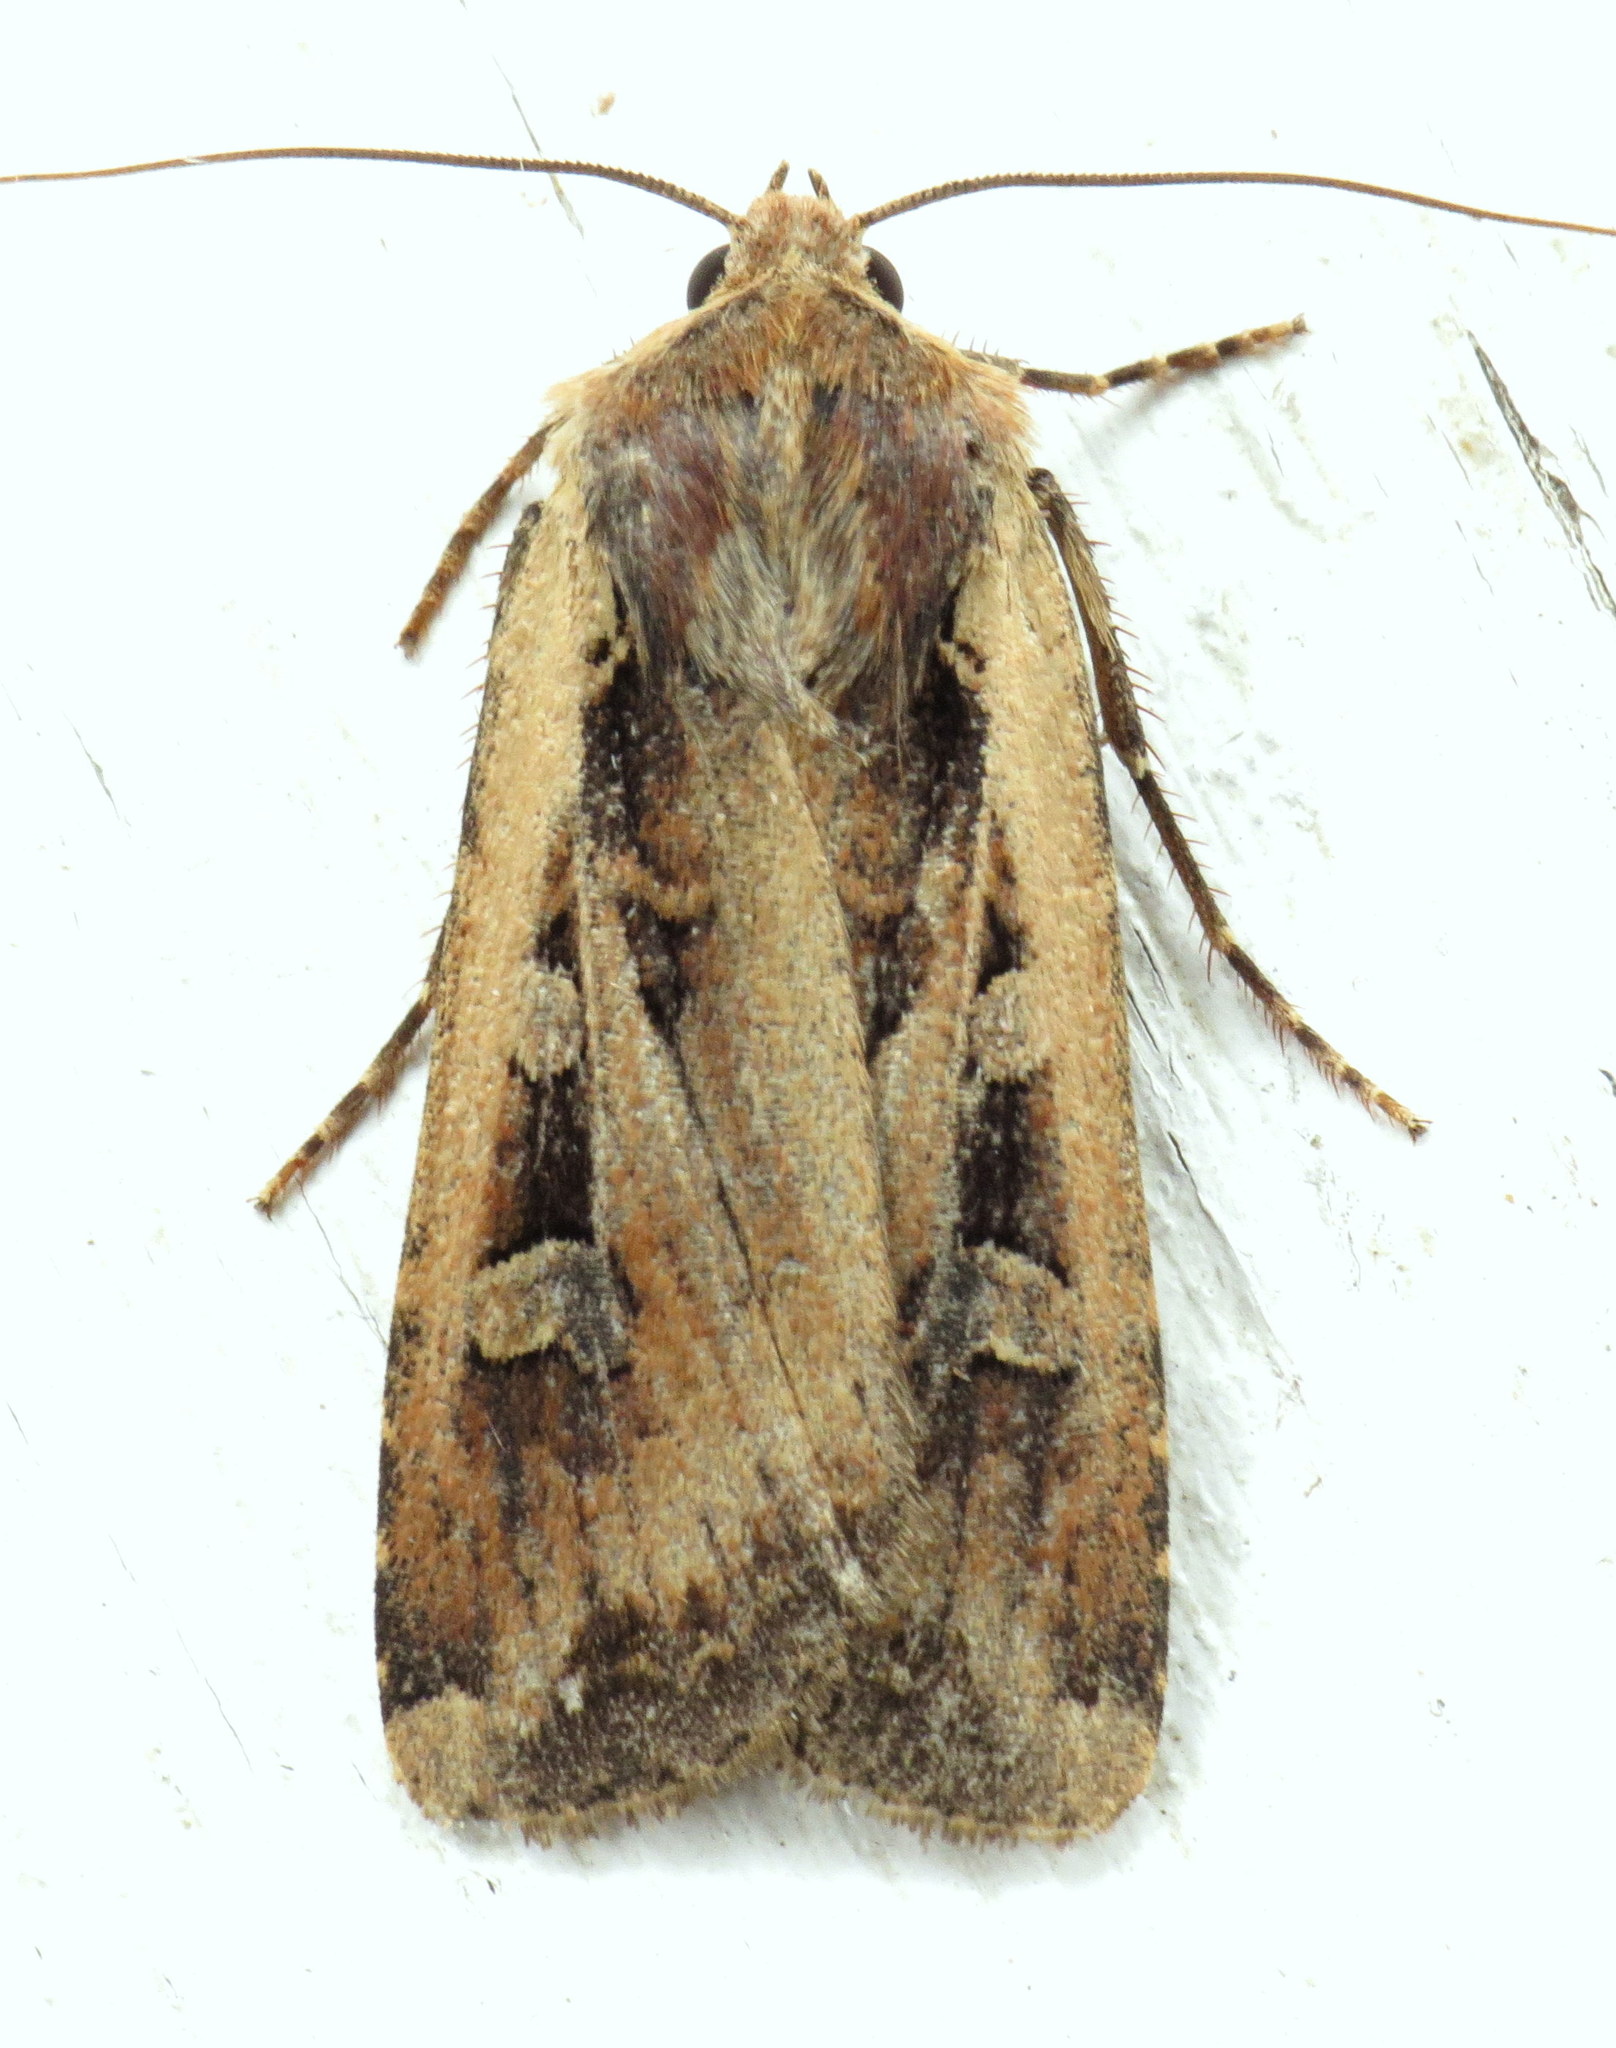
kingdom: Animalia
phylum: Arthropoda
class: Insecta
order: Lepidoptera
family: Noctuidae
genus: Euxoa
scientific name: Euxoa ochrogaster
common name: Red-backed cutworm moth
